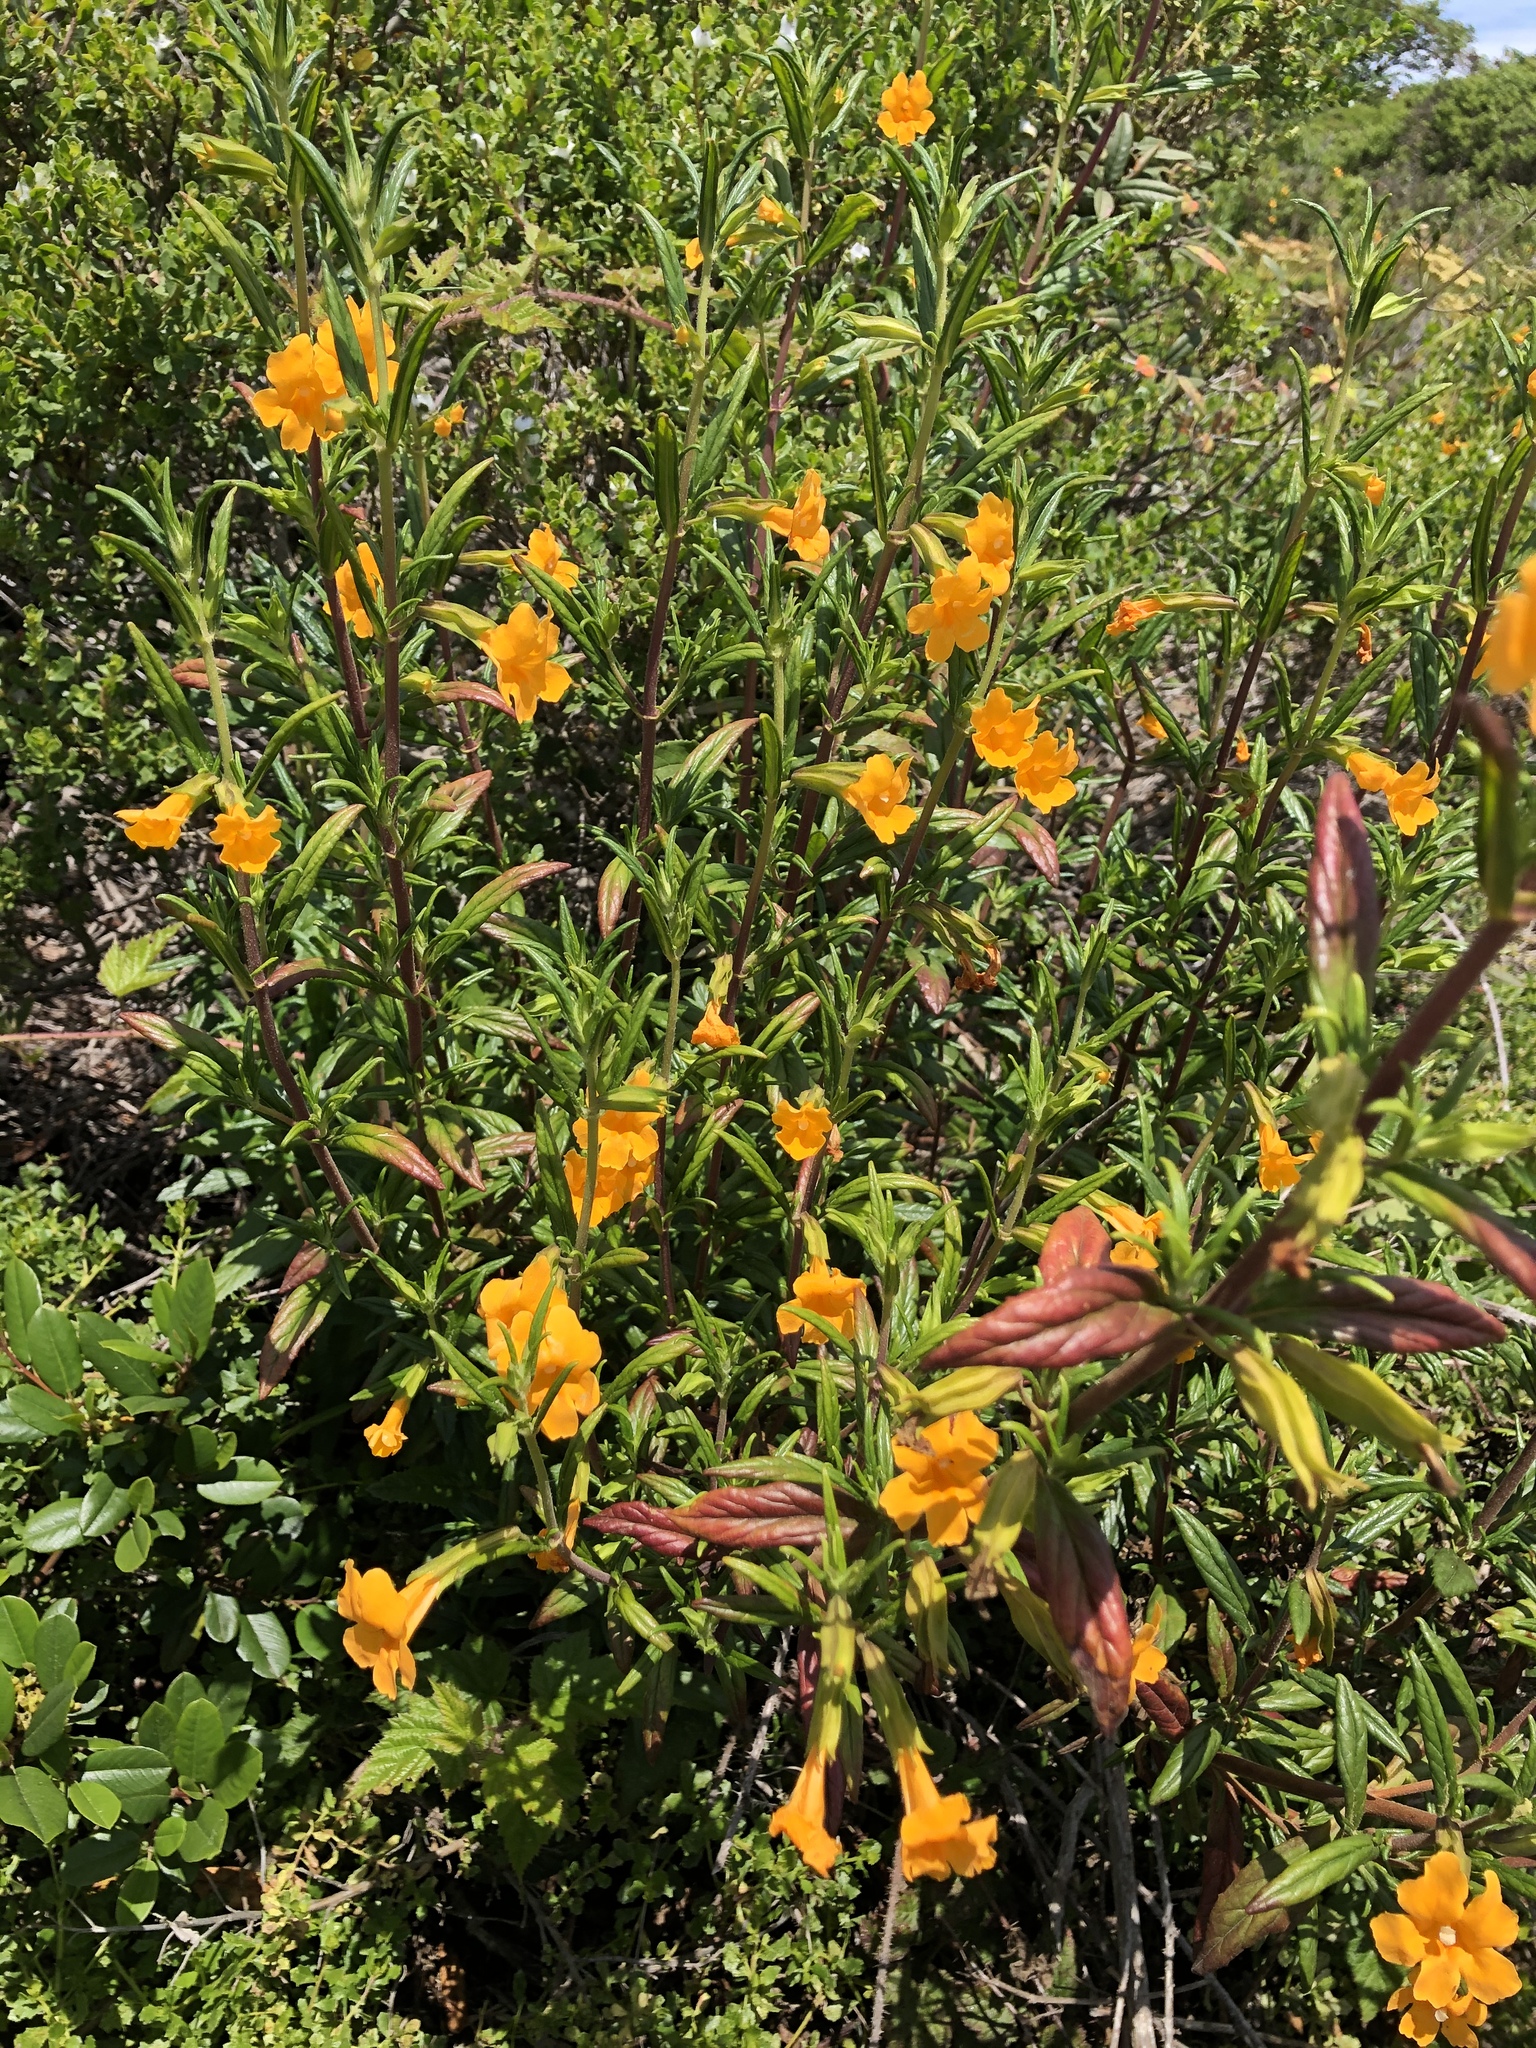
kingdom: Plantae
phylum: Tracheophyta
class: Magnoliopsida
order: Lamiales
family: Phrymaceae
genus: Diplacus
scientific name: Diplacus aurantiacus
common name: Bush monkey-flower
